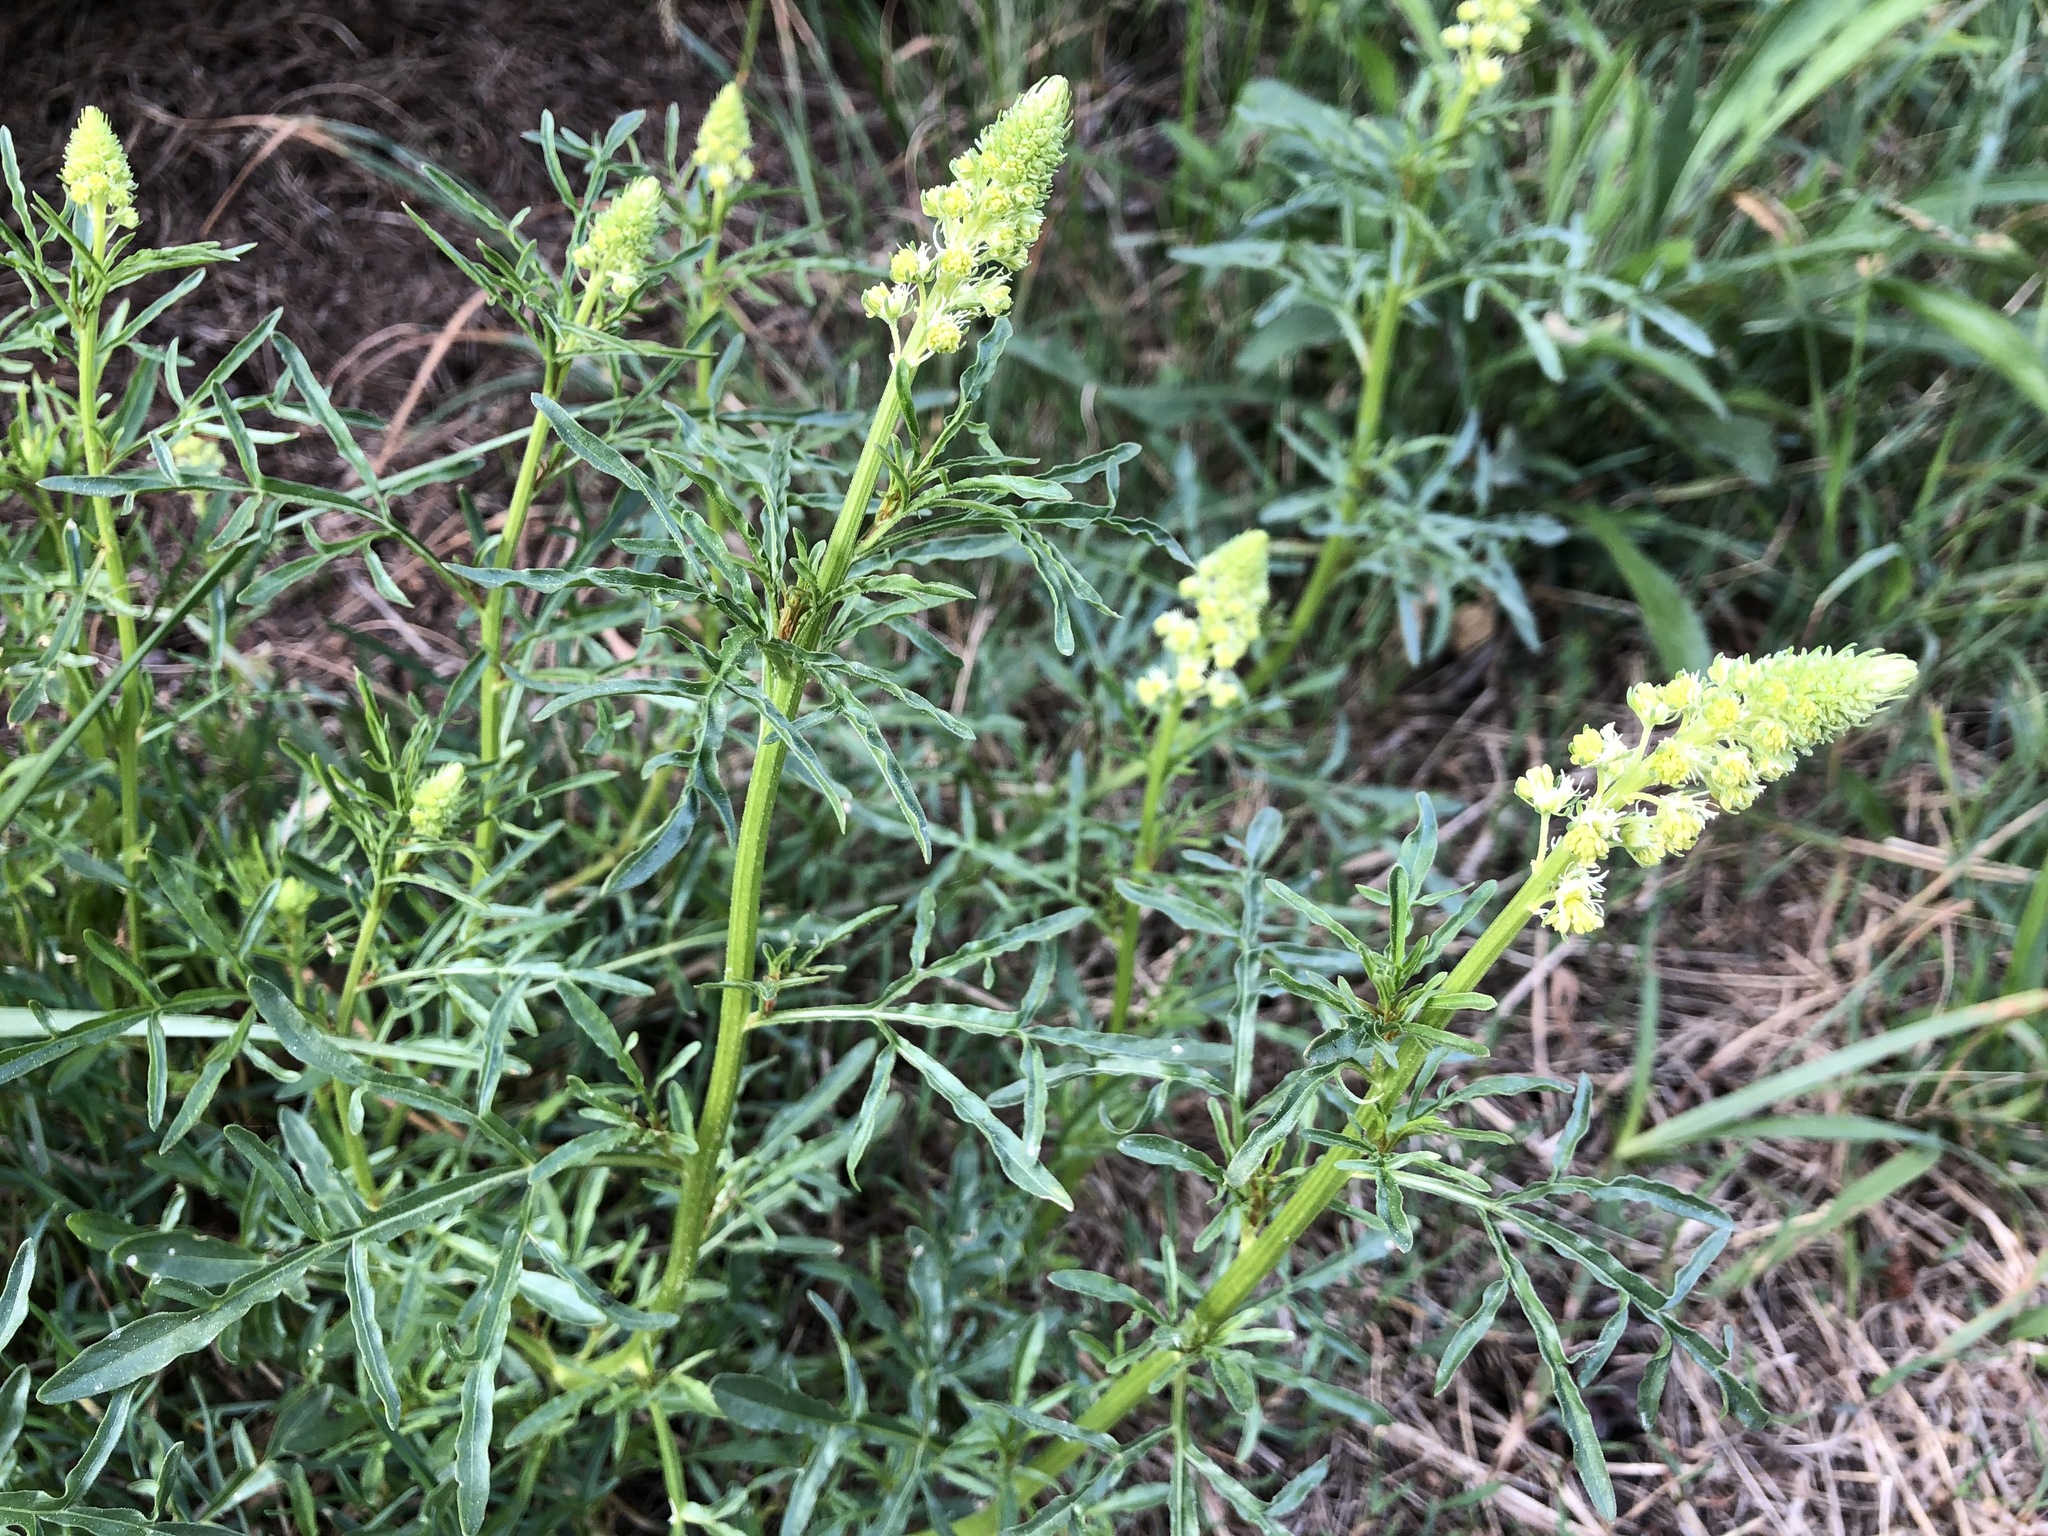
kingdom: Plantae
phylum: Tracheophyta
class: Magnoliopsida
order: Brassicales
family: Resedaceae
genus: Reseda
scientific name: Reseda lutea
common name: Wild mignonette
